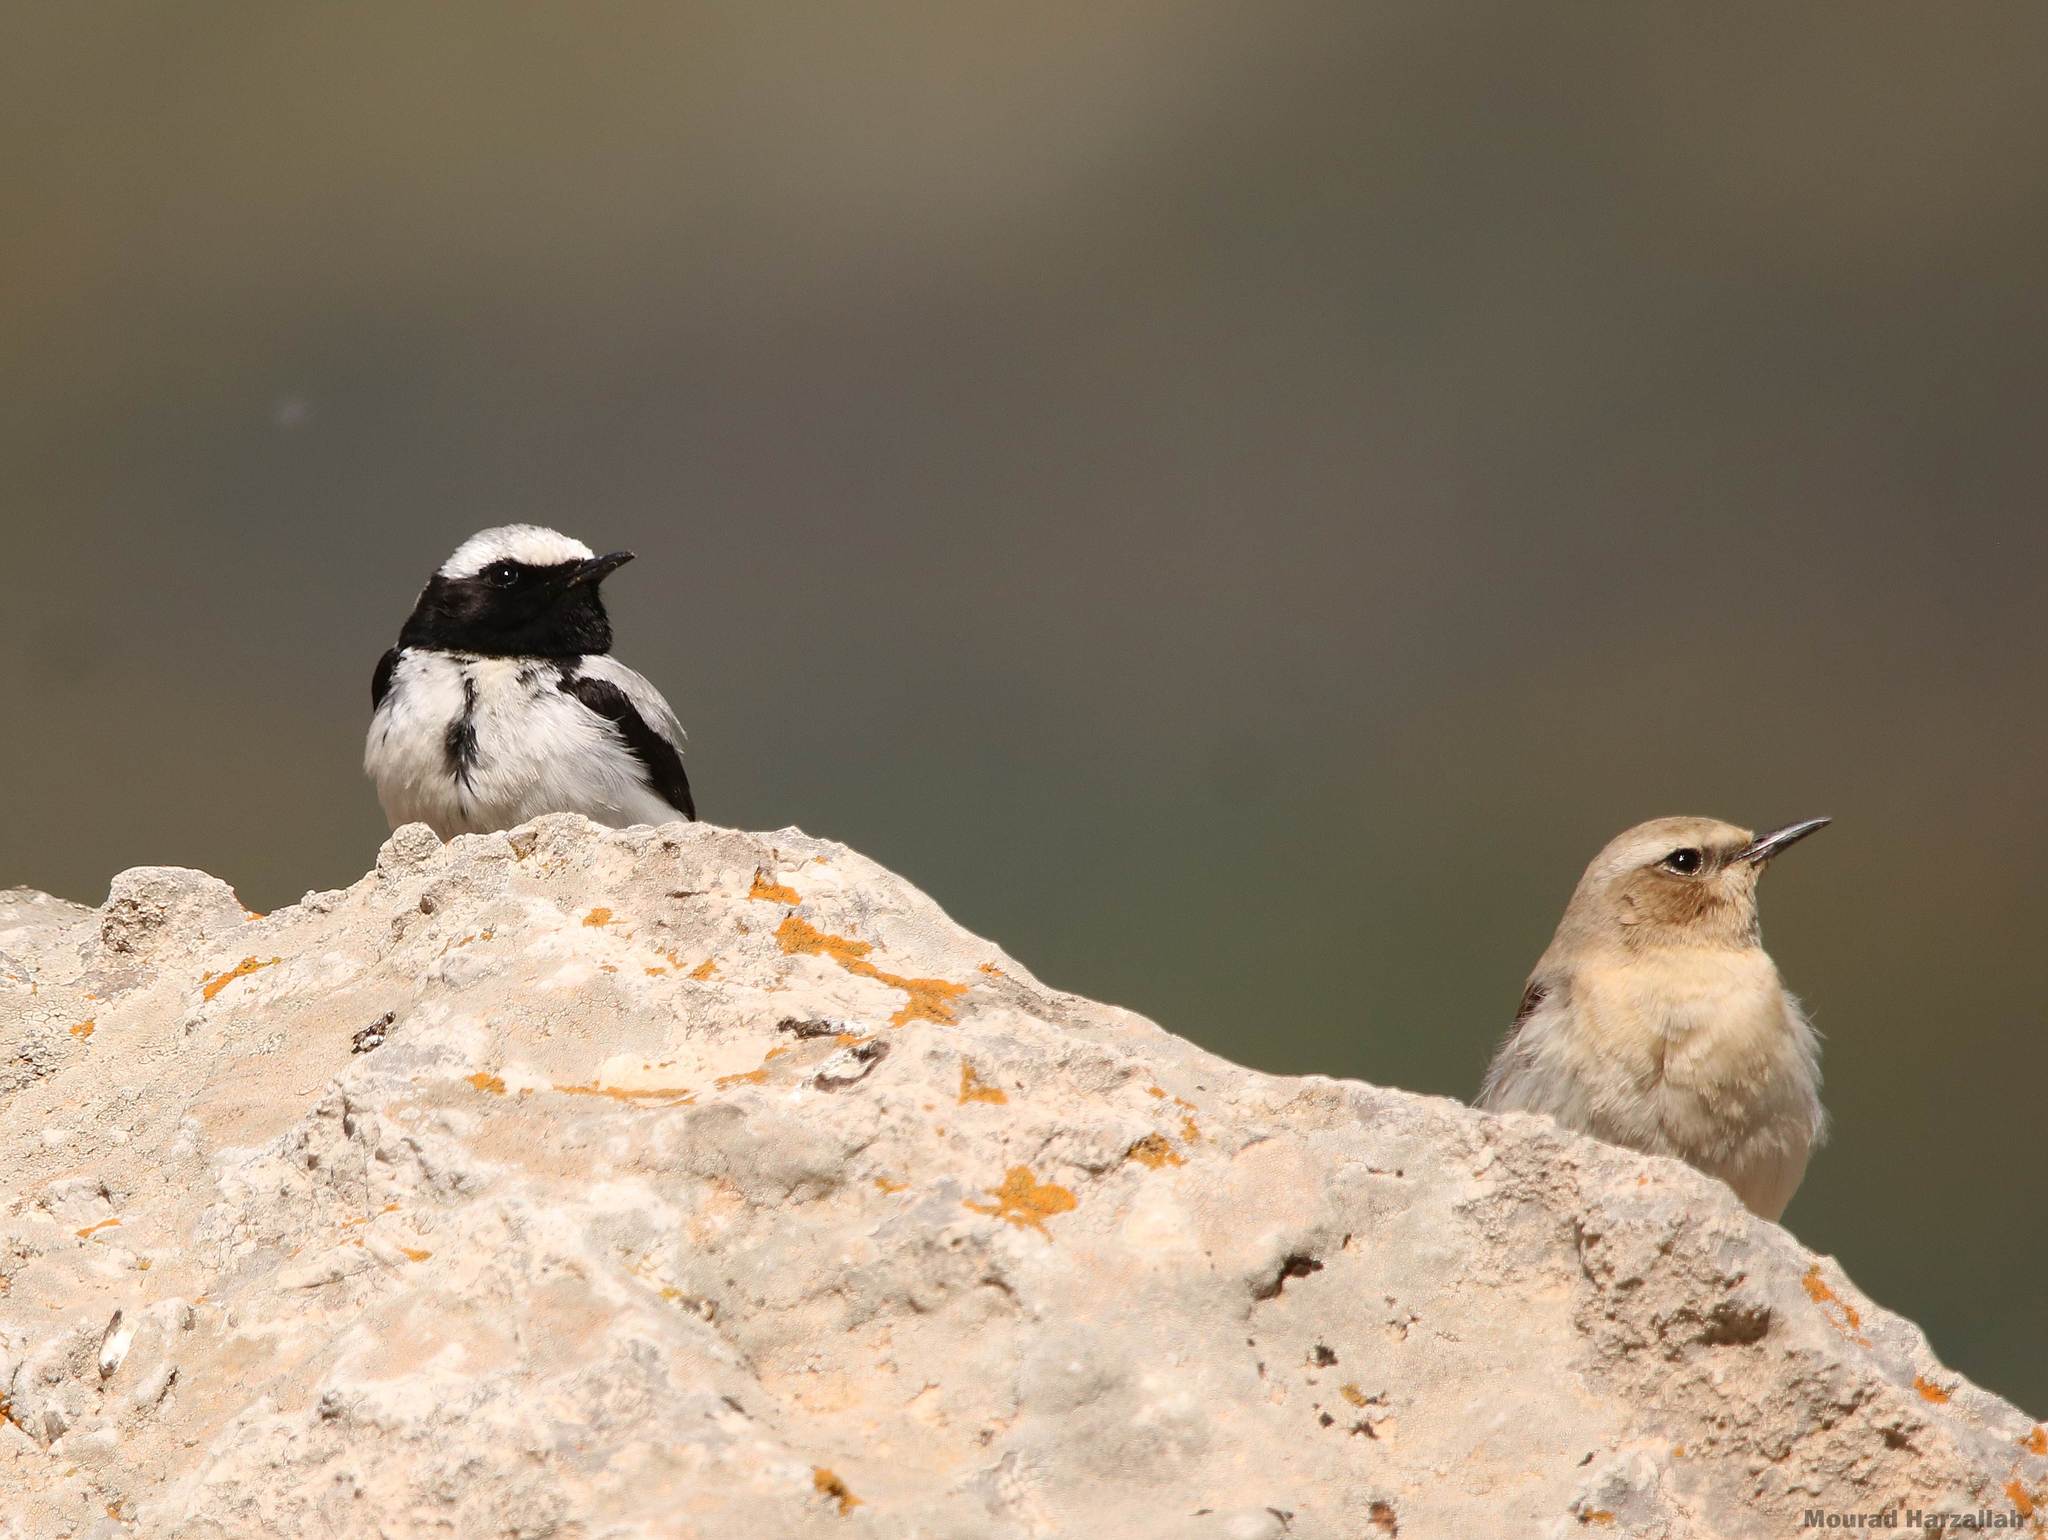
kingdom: Animalia
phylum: Chordata
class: Aves
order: Passeriformes
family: Muscicapidae
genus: Oenanthe
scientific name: Oenanthe oenanthe
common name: Northern wheatear
